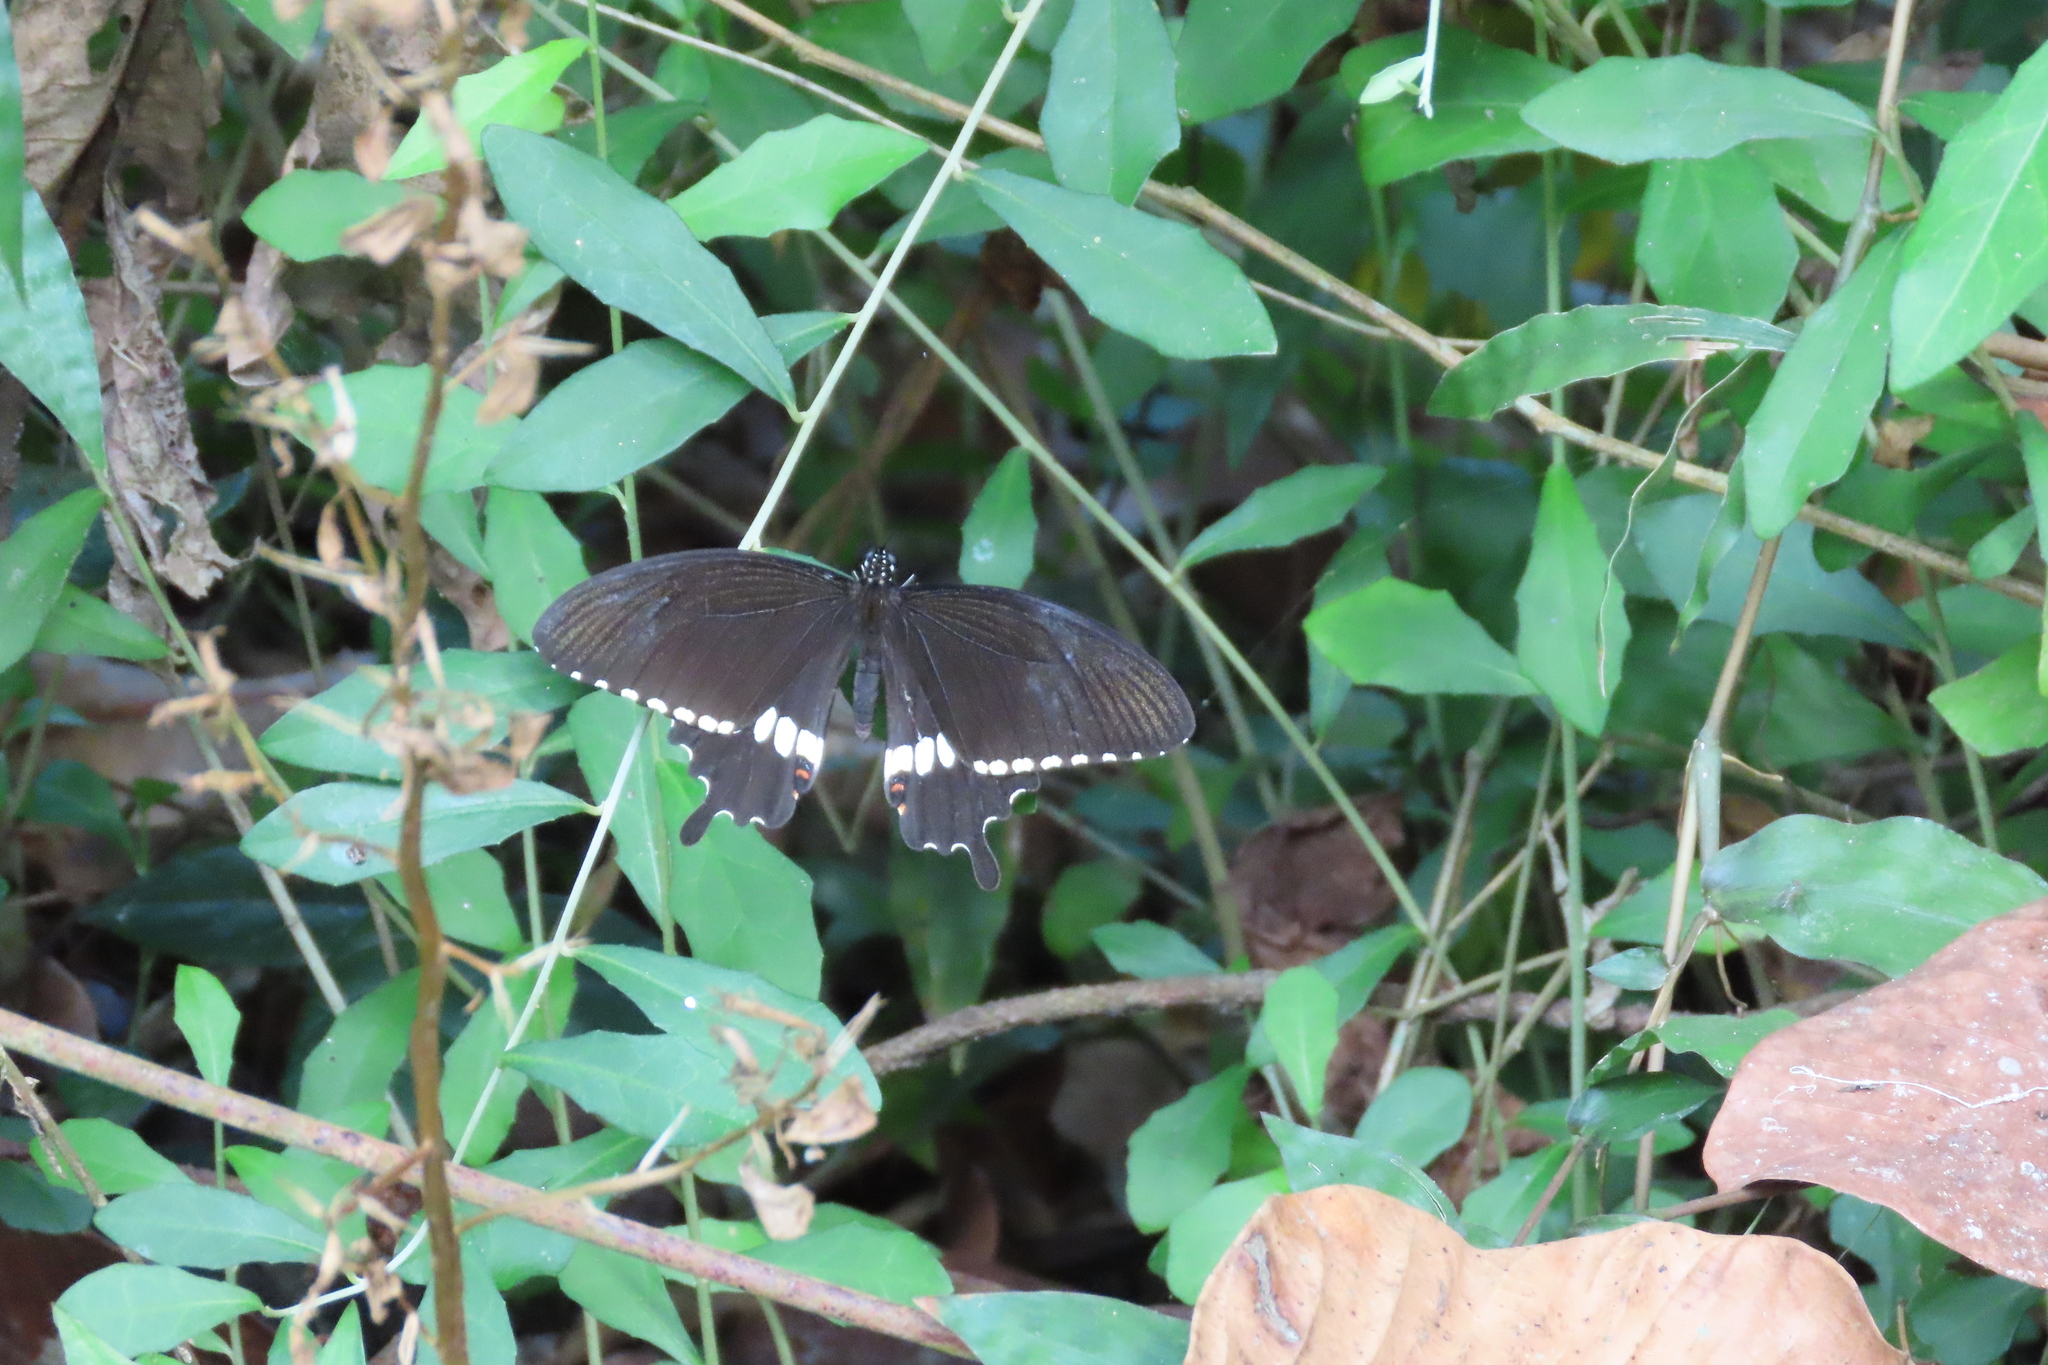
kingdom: Animalia
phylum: Arthropoda
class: Insecta
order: Lepidoptera
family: Papilionidae
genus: Papilio
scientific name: Papilio polytes
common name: Common mormon
